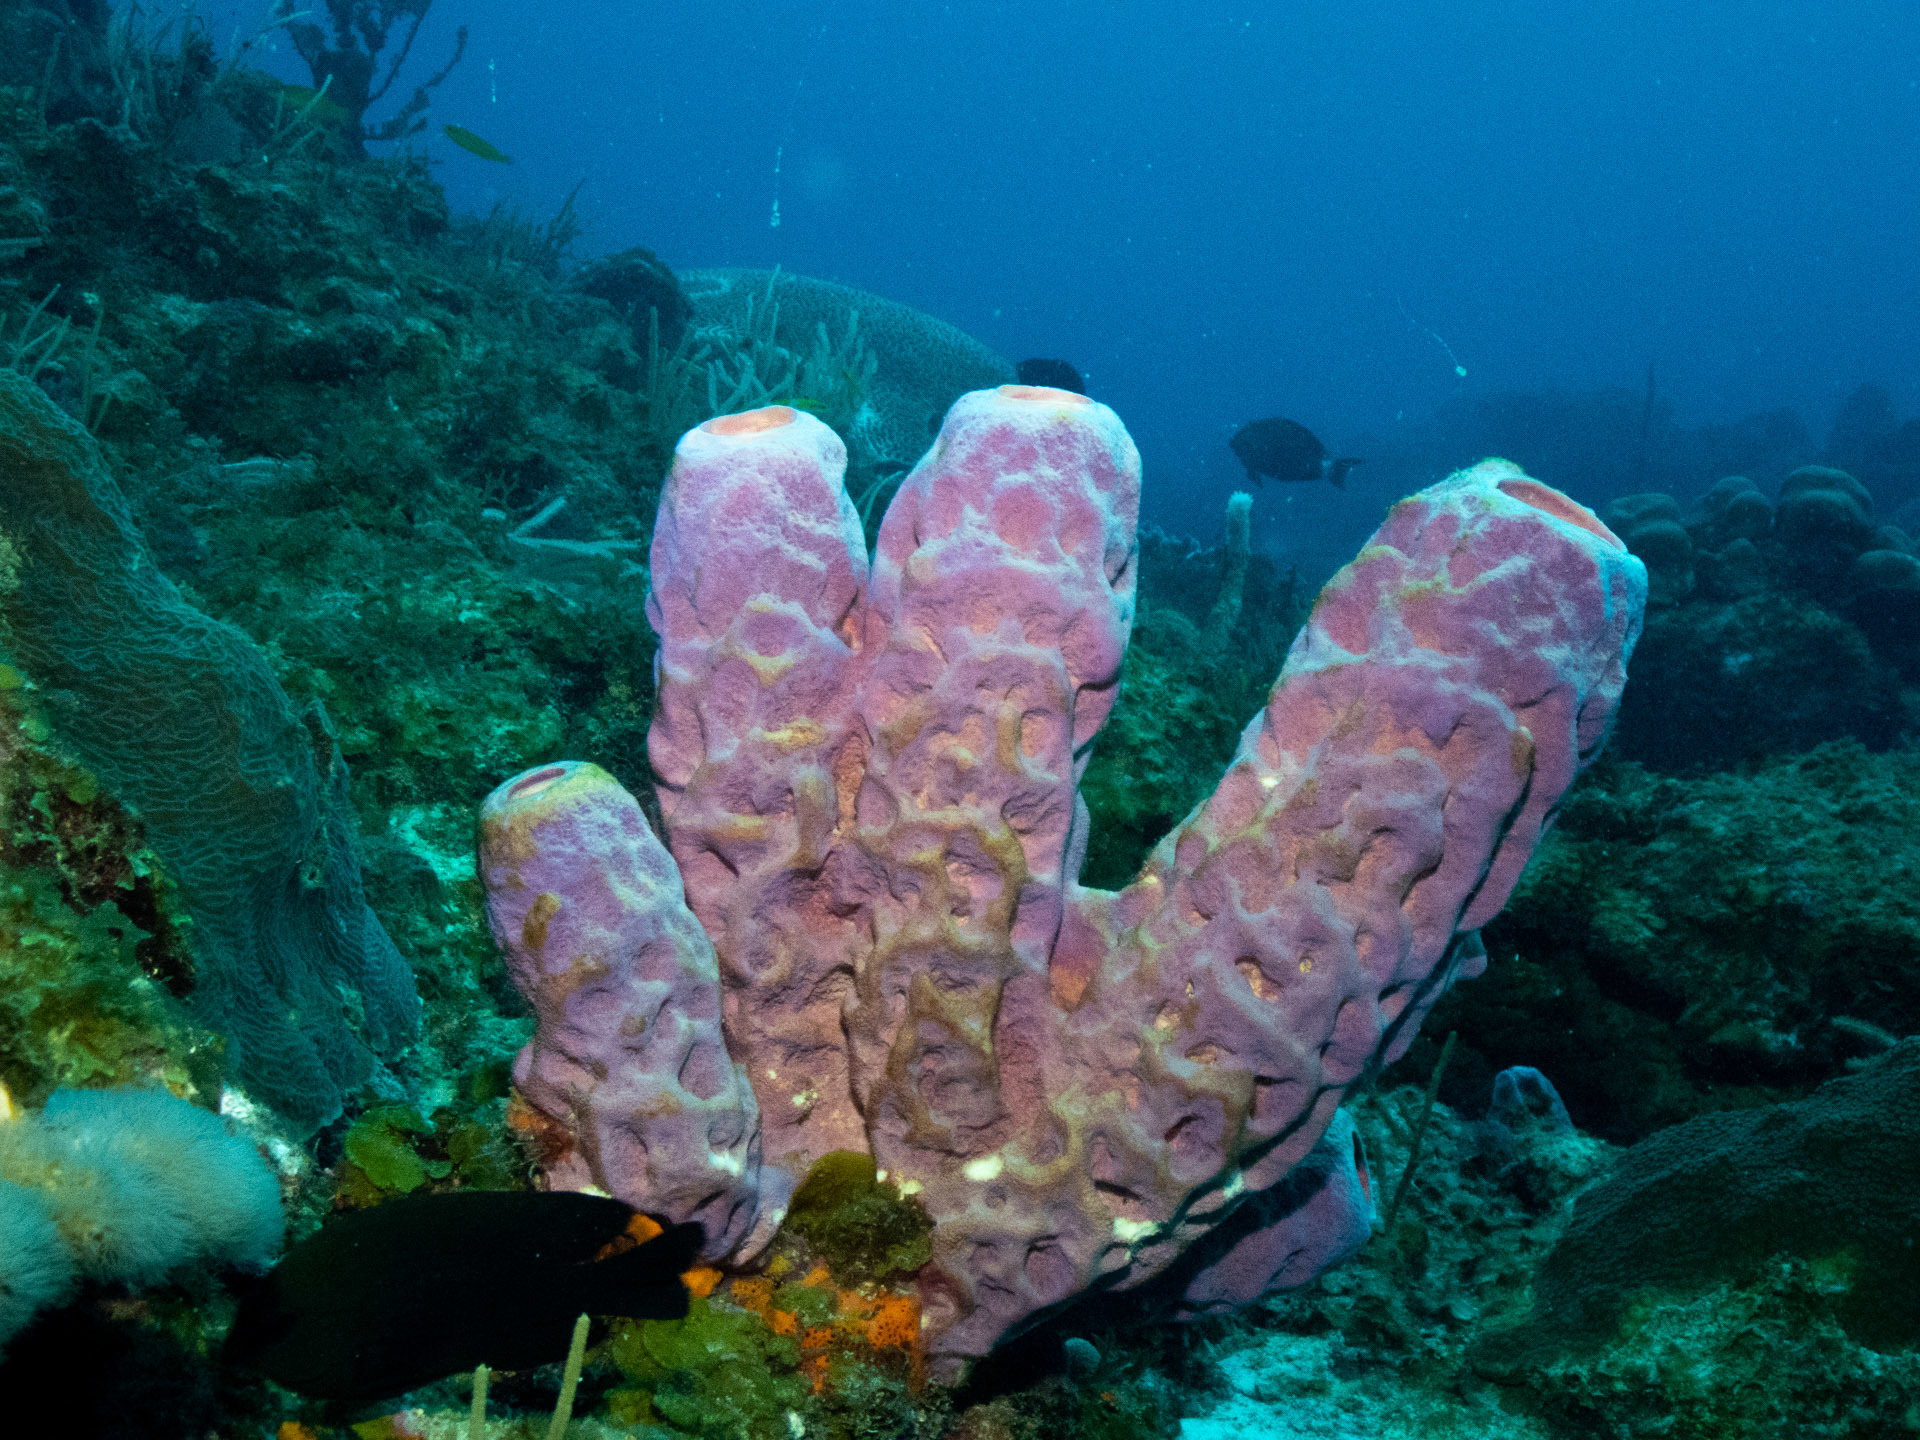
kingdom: Animalia
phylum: Porifera
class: Demospongiae
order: Verongiida
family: Aplysinidae
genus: Aplysina
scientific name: Aplysina archeri
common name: Stove-pipe sponge
